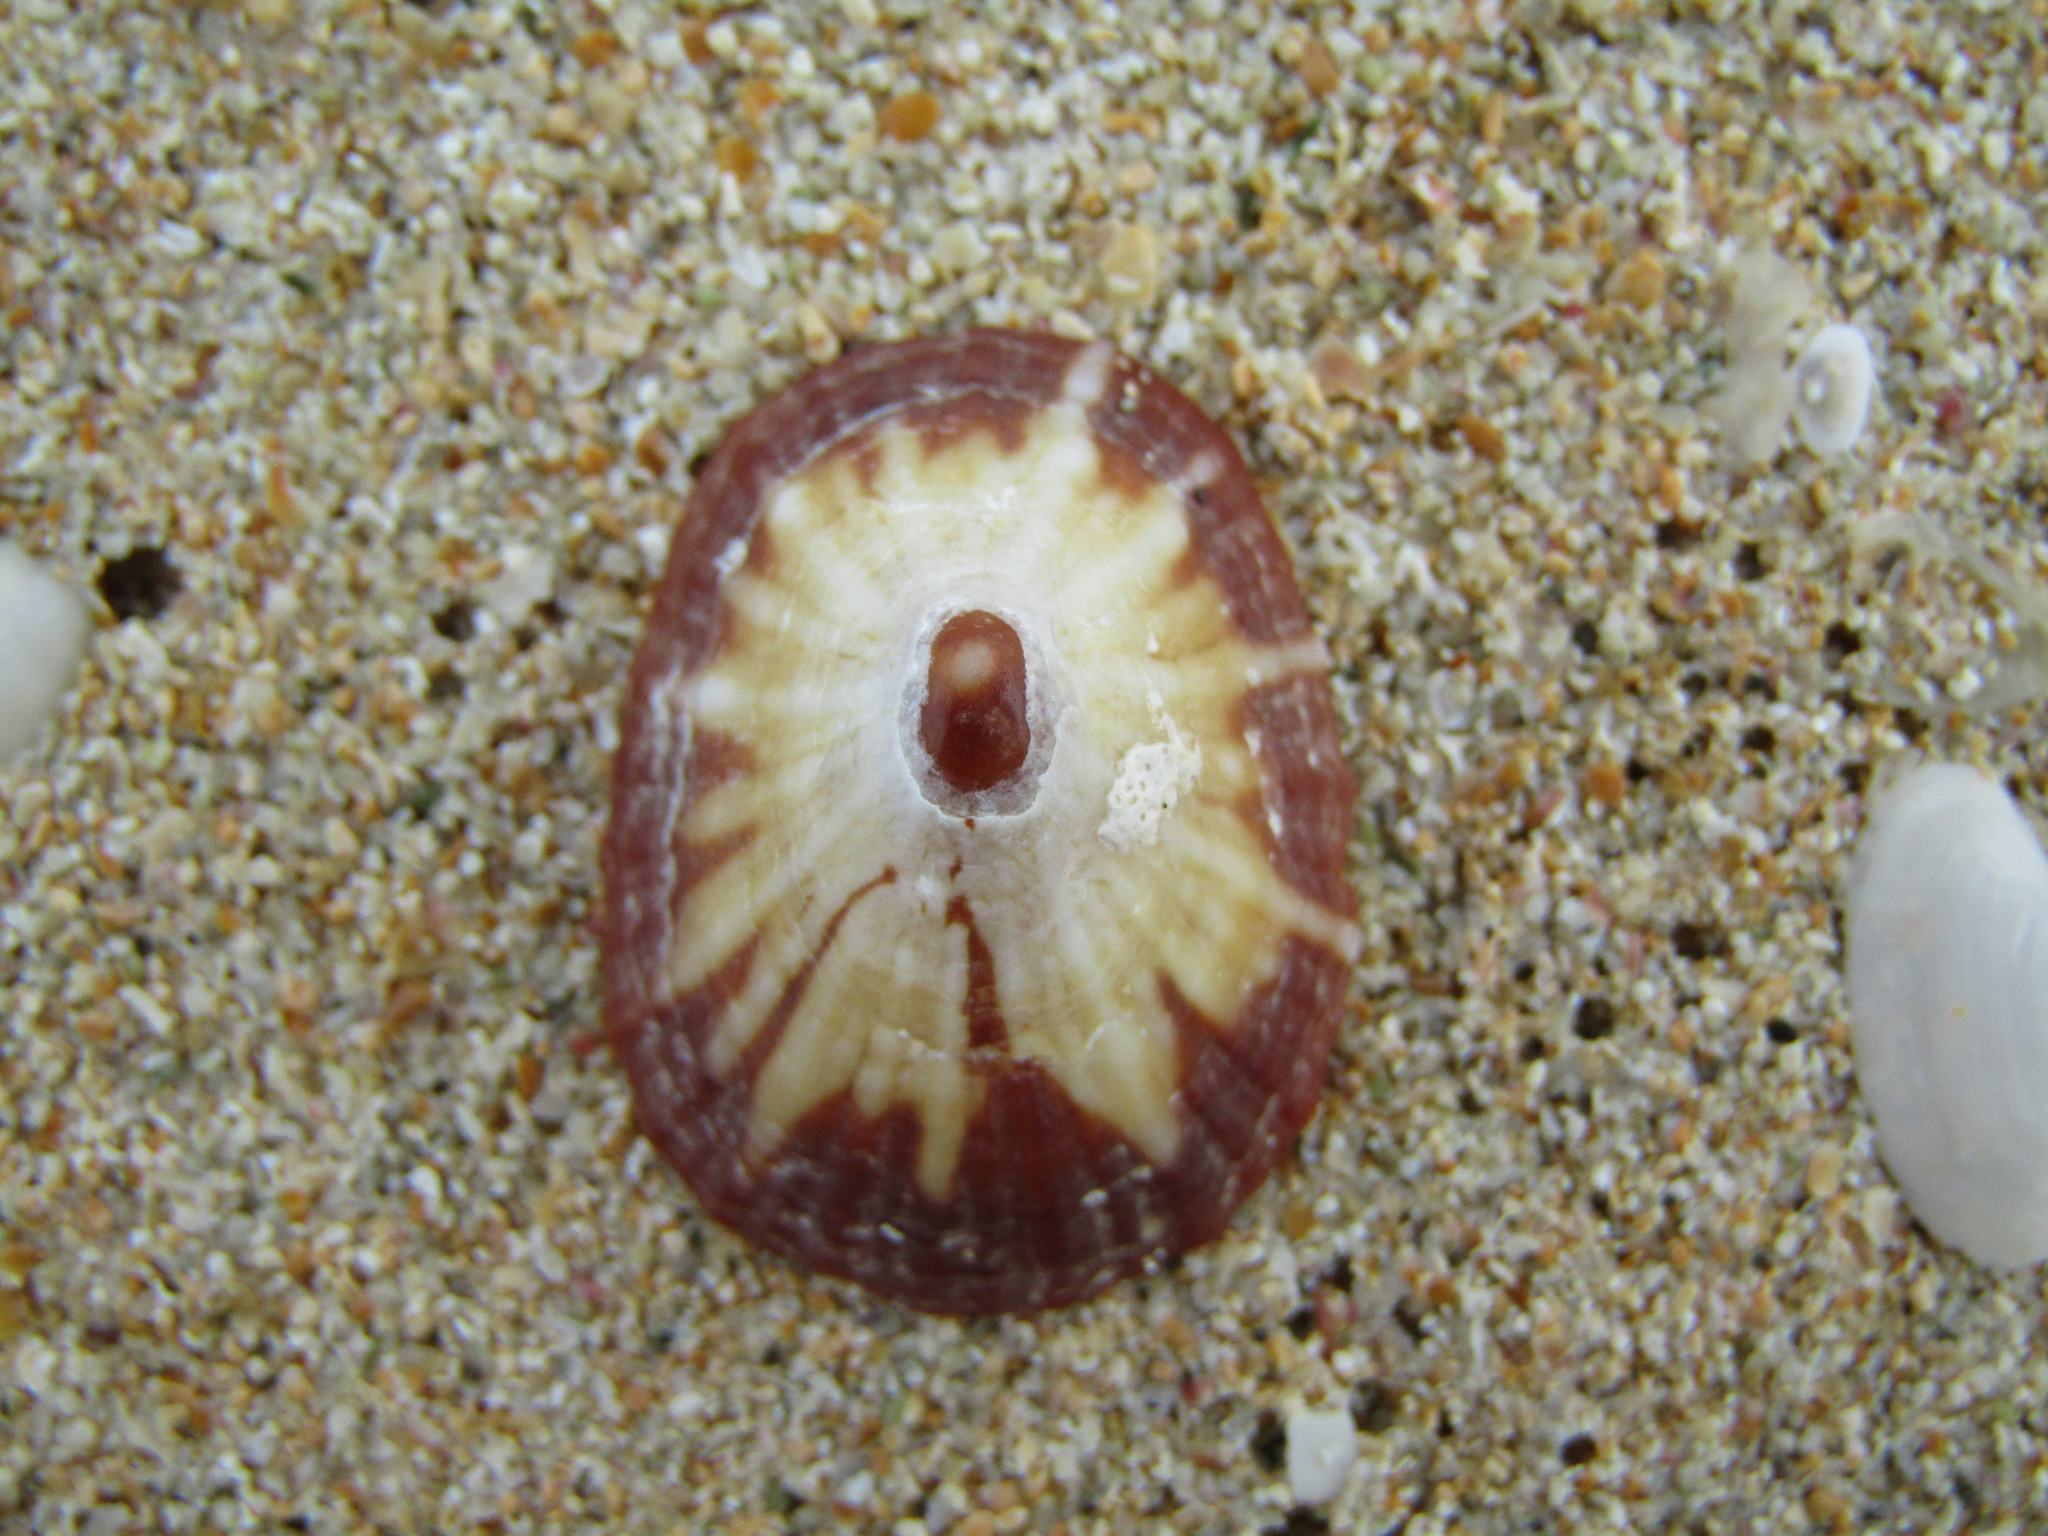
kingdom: Animalia
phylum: Mollusca
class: Gastropoda
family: Nacellidae
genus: Cellana
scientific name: Cellana stellifera
